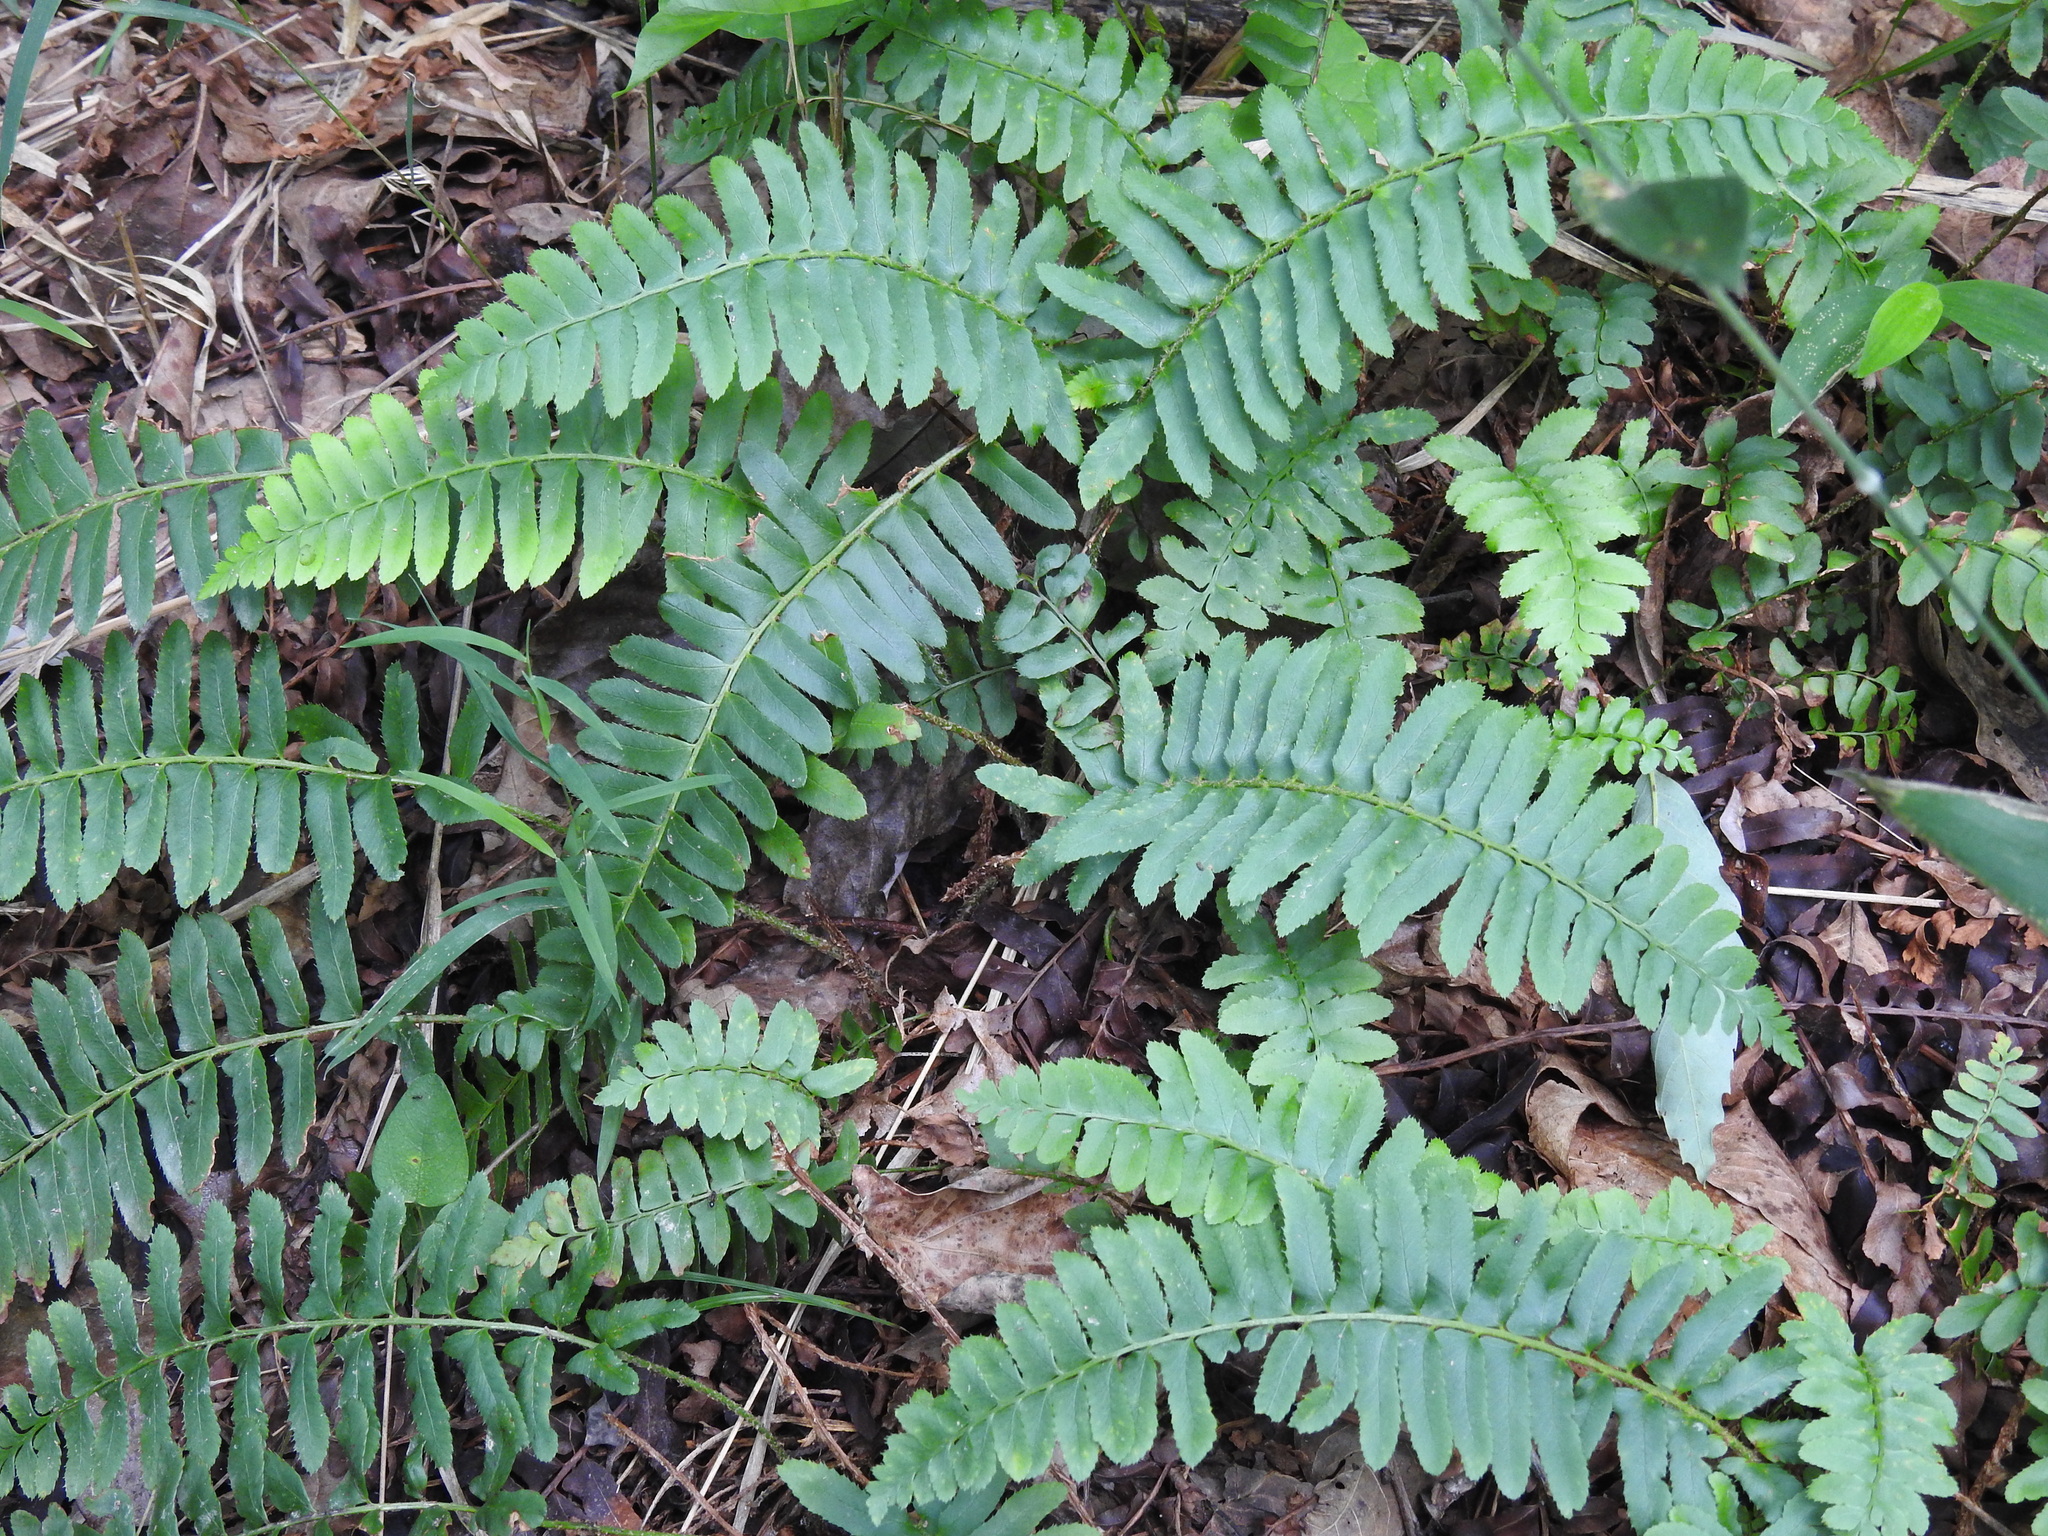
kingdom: Plantae
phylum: Tracheophyta
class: Polypodiopsida
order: Polypodiales
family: Dryopteridaceae
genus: Polystichum
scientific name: Polystichum acrostichoides
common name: Christmas fern
